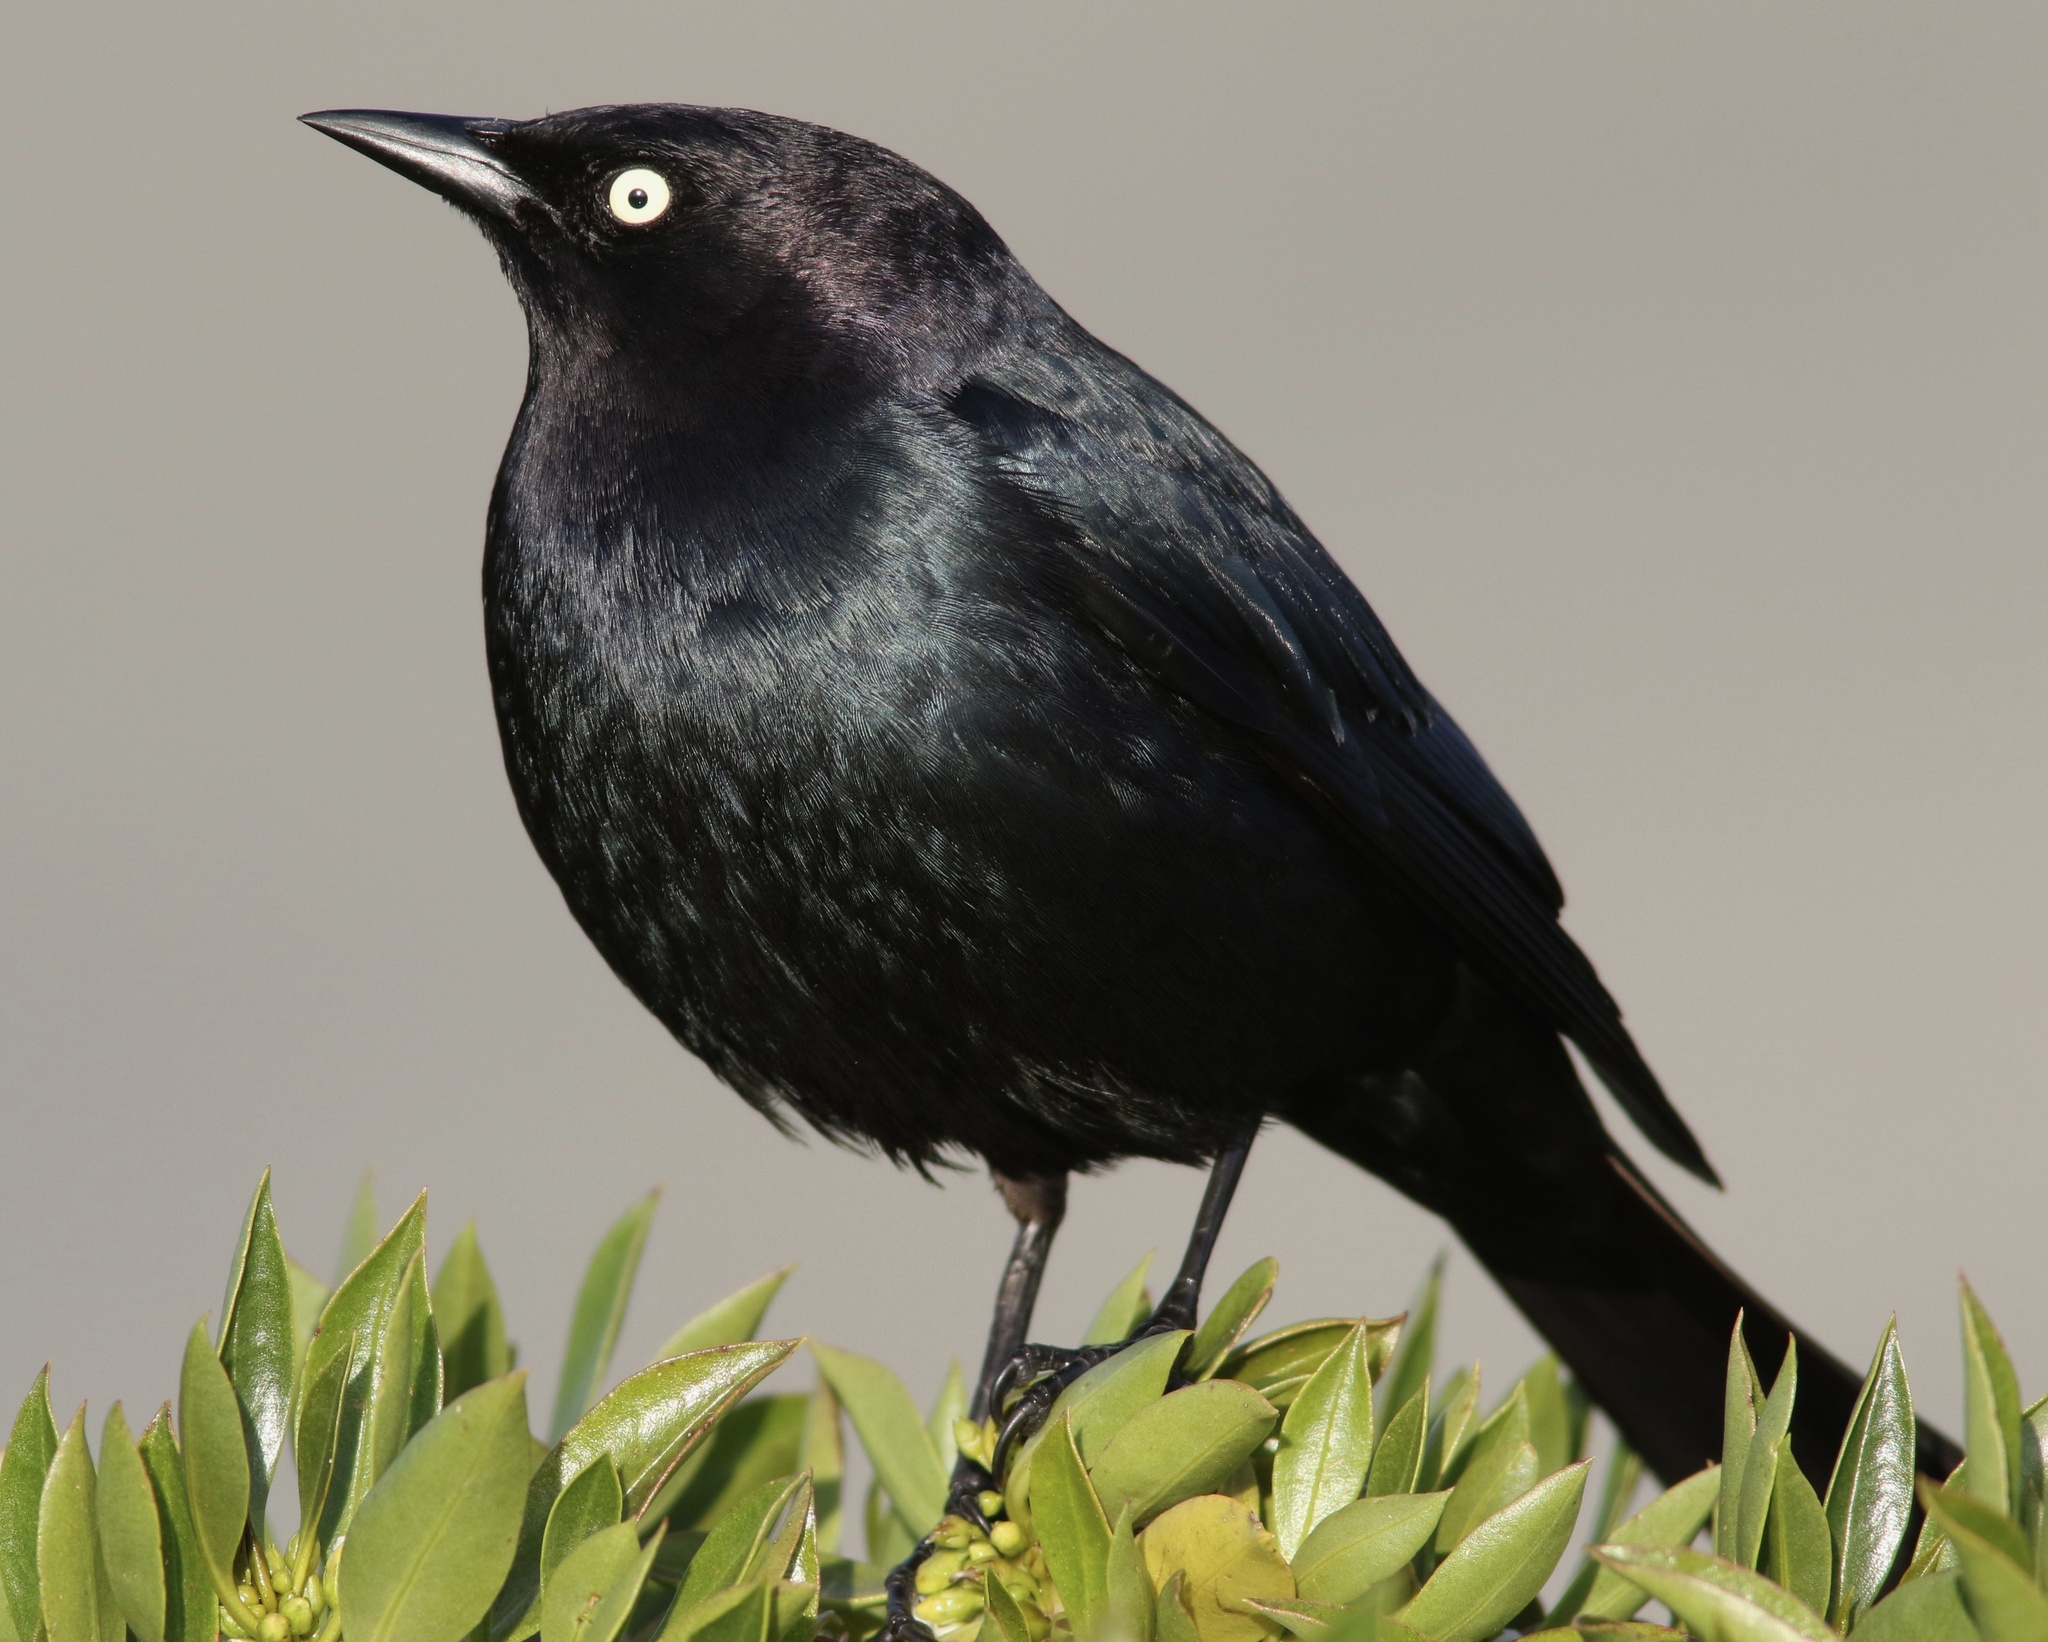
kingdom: Animalia
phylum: Chordata
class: Aves
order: Passeriformes
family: Icteridae
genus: Euphagus
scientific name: Euphagus cyanocephalus
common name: Brewer's blackbird
